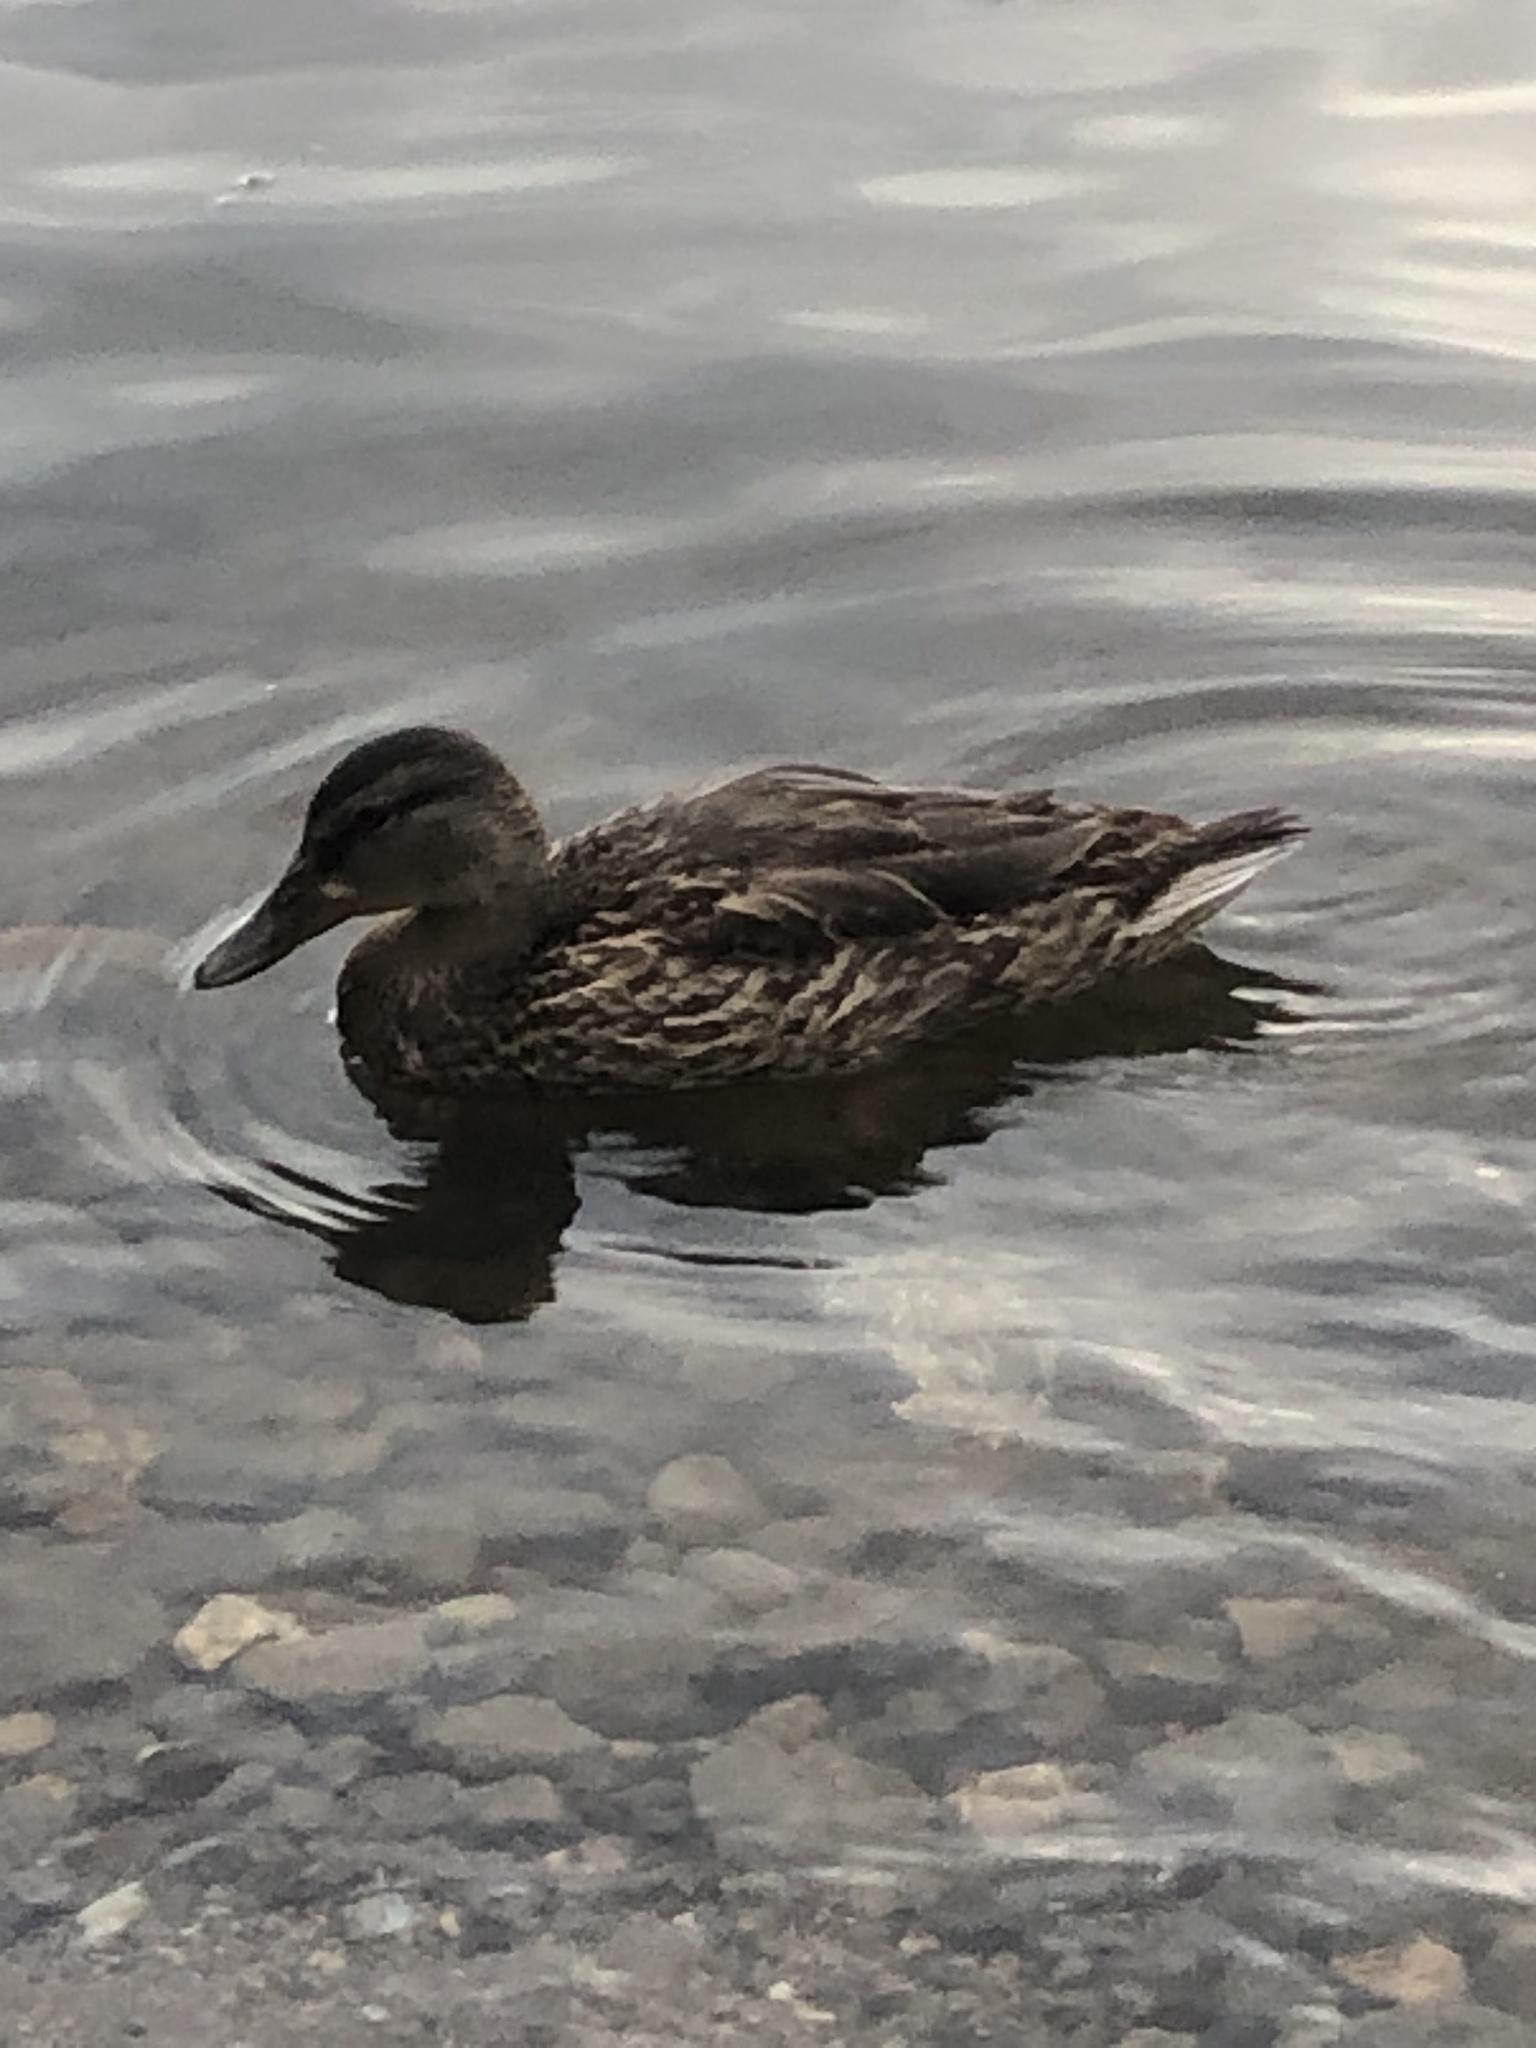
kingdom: Animalia
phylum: Chordata
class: Aves
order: Anseriformes
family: Anatidae
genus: Anas
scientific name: Anas platyrhynchos
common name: Mallard
